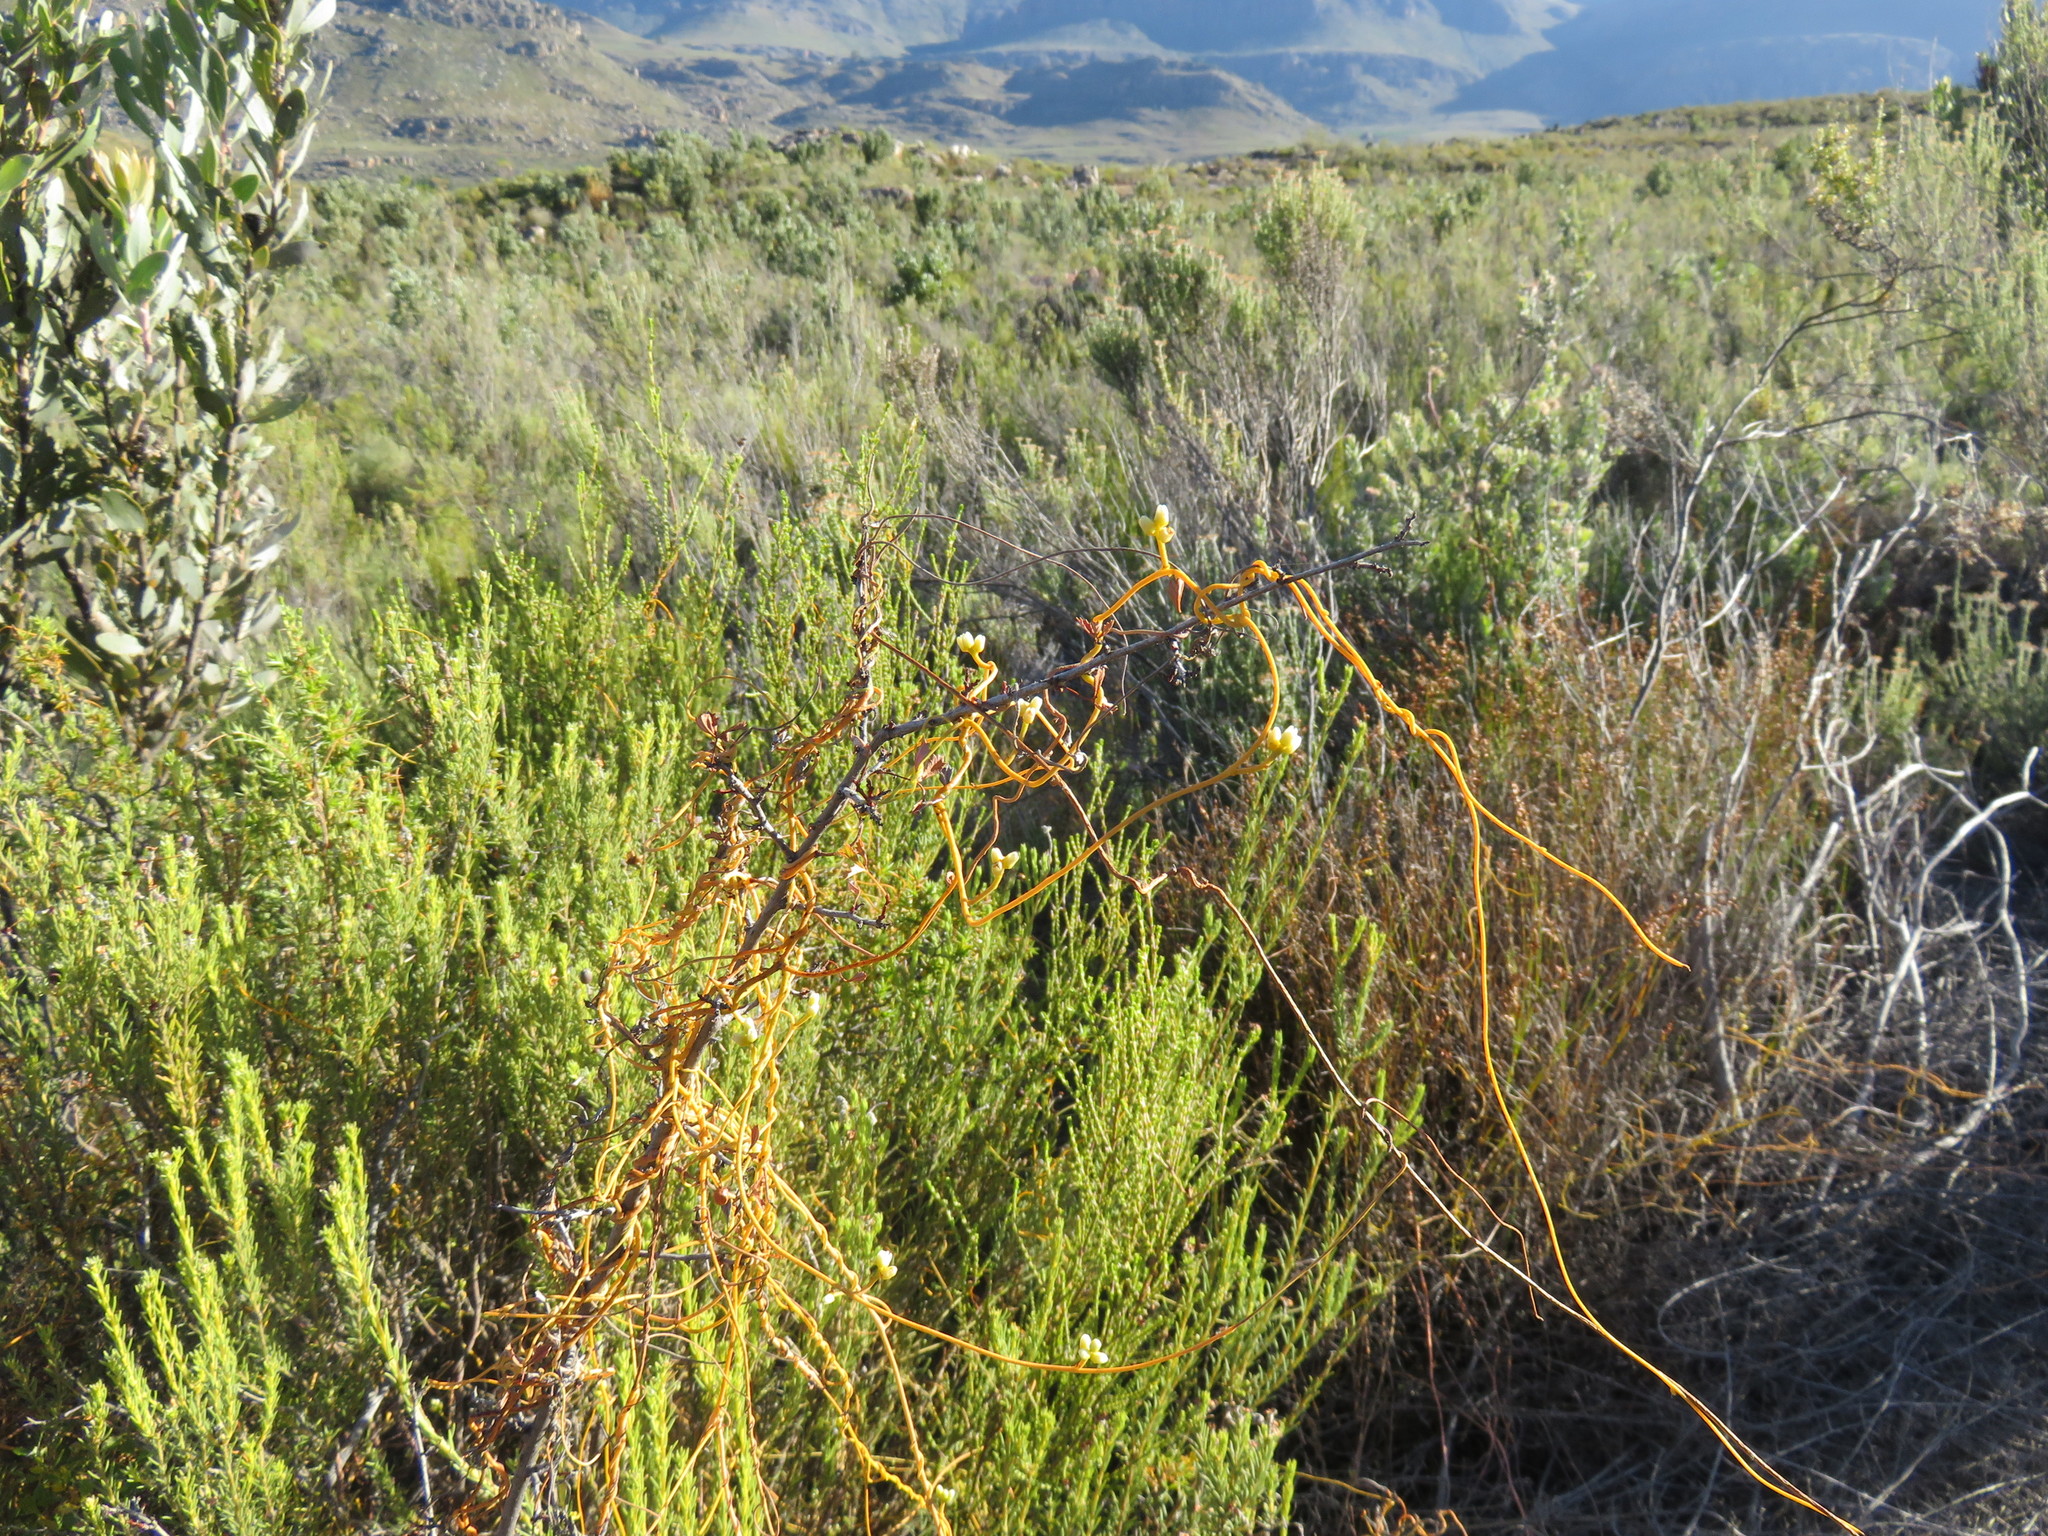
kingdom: Plantae
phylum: Tracheophyta
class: Magnoliopsida
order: Laurales
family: Lauraceae
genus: Cassytha
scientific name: Cassytha ciliolata
